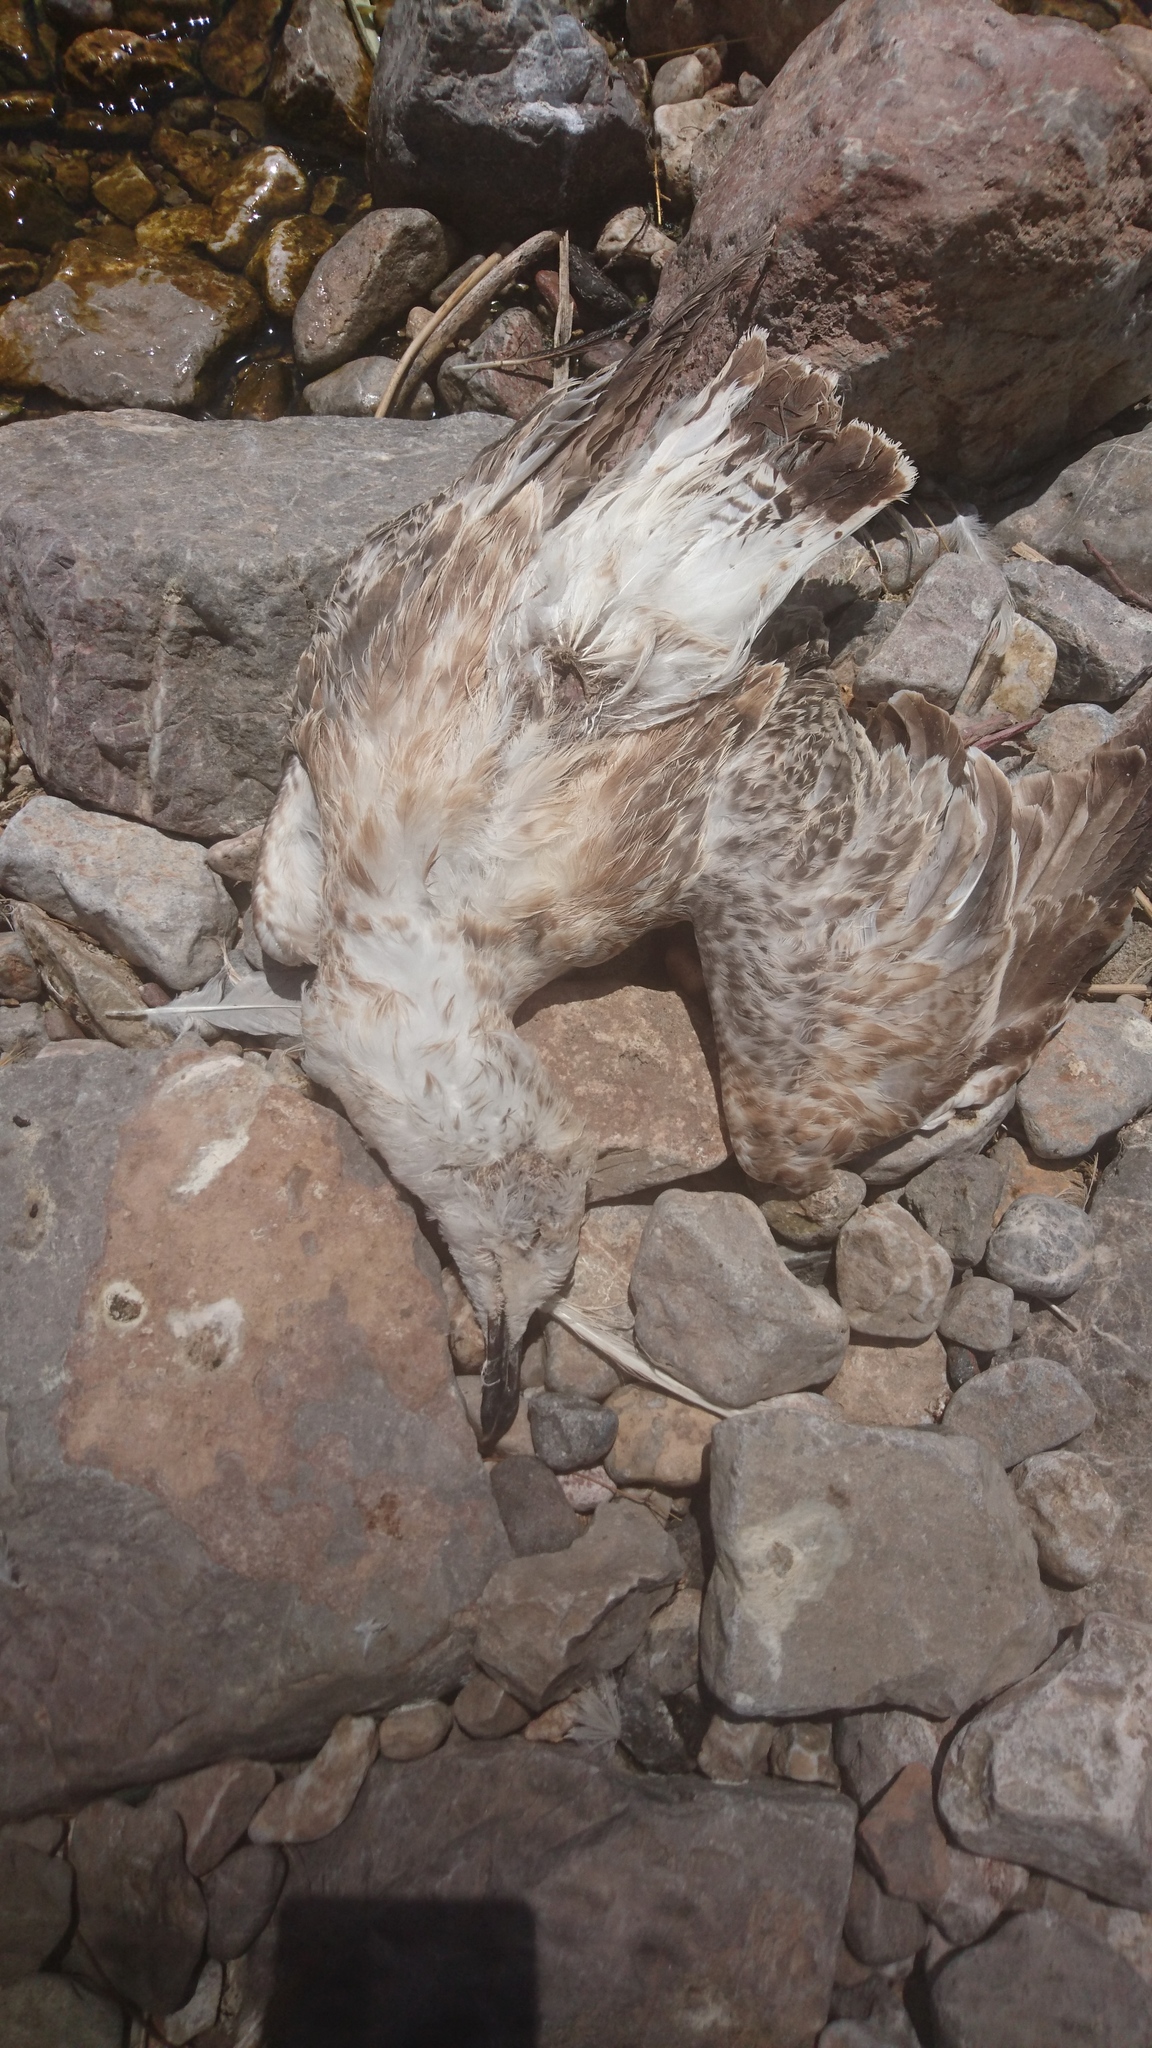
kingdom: Animalia
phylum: Chordata
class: Aves
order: Charadriiformes
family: Laridae
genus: Larus
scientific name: Larus armenicus
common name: Armenian gull
